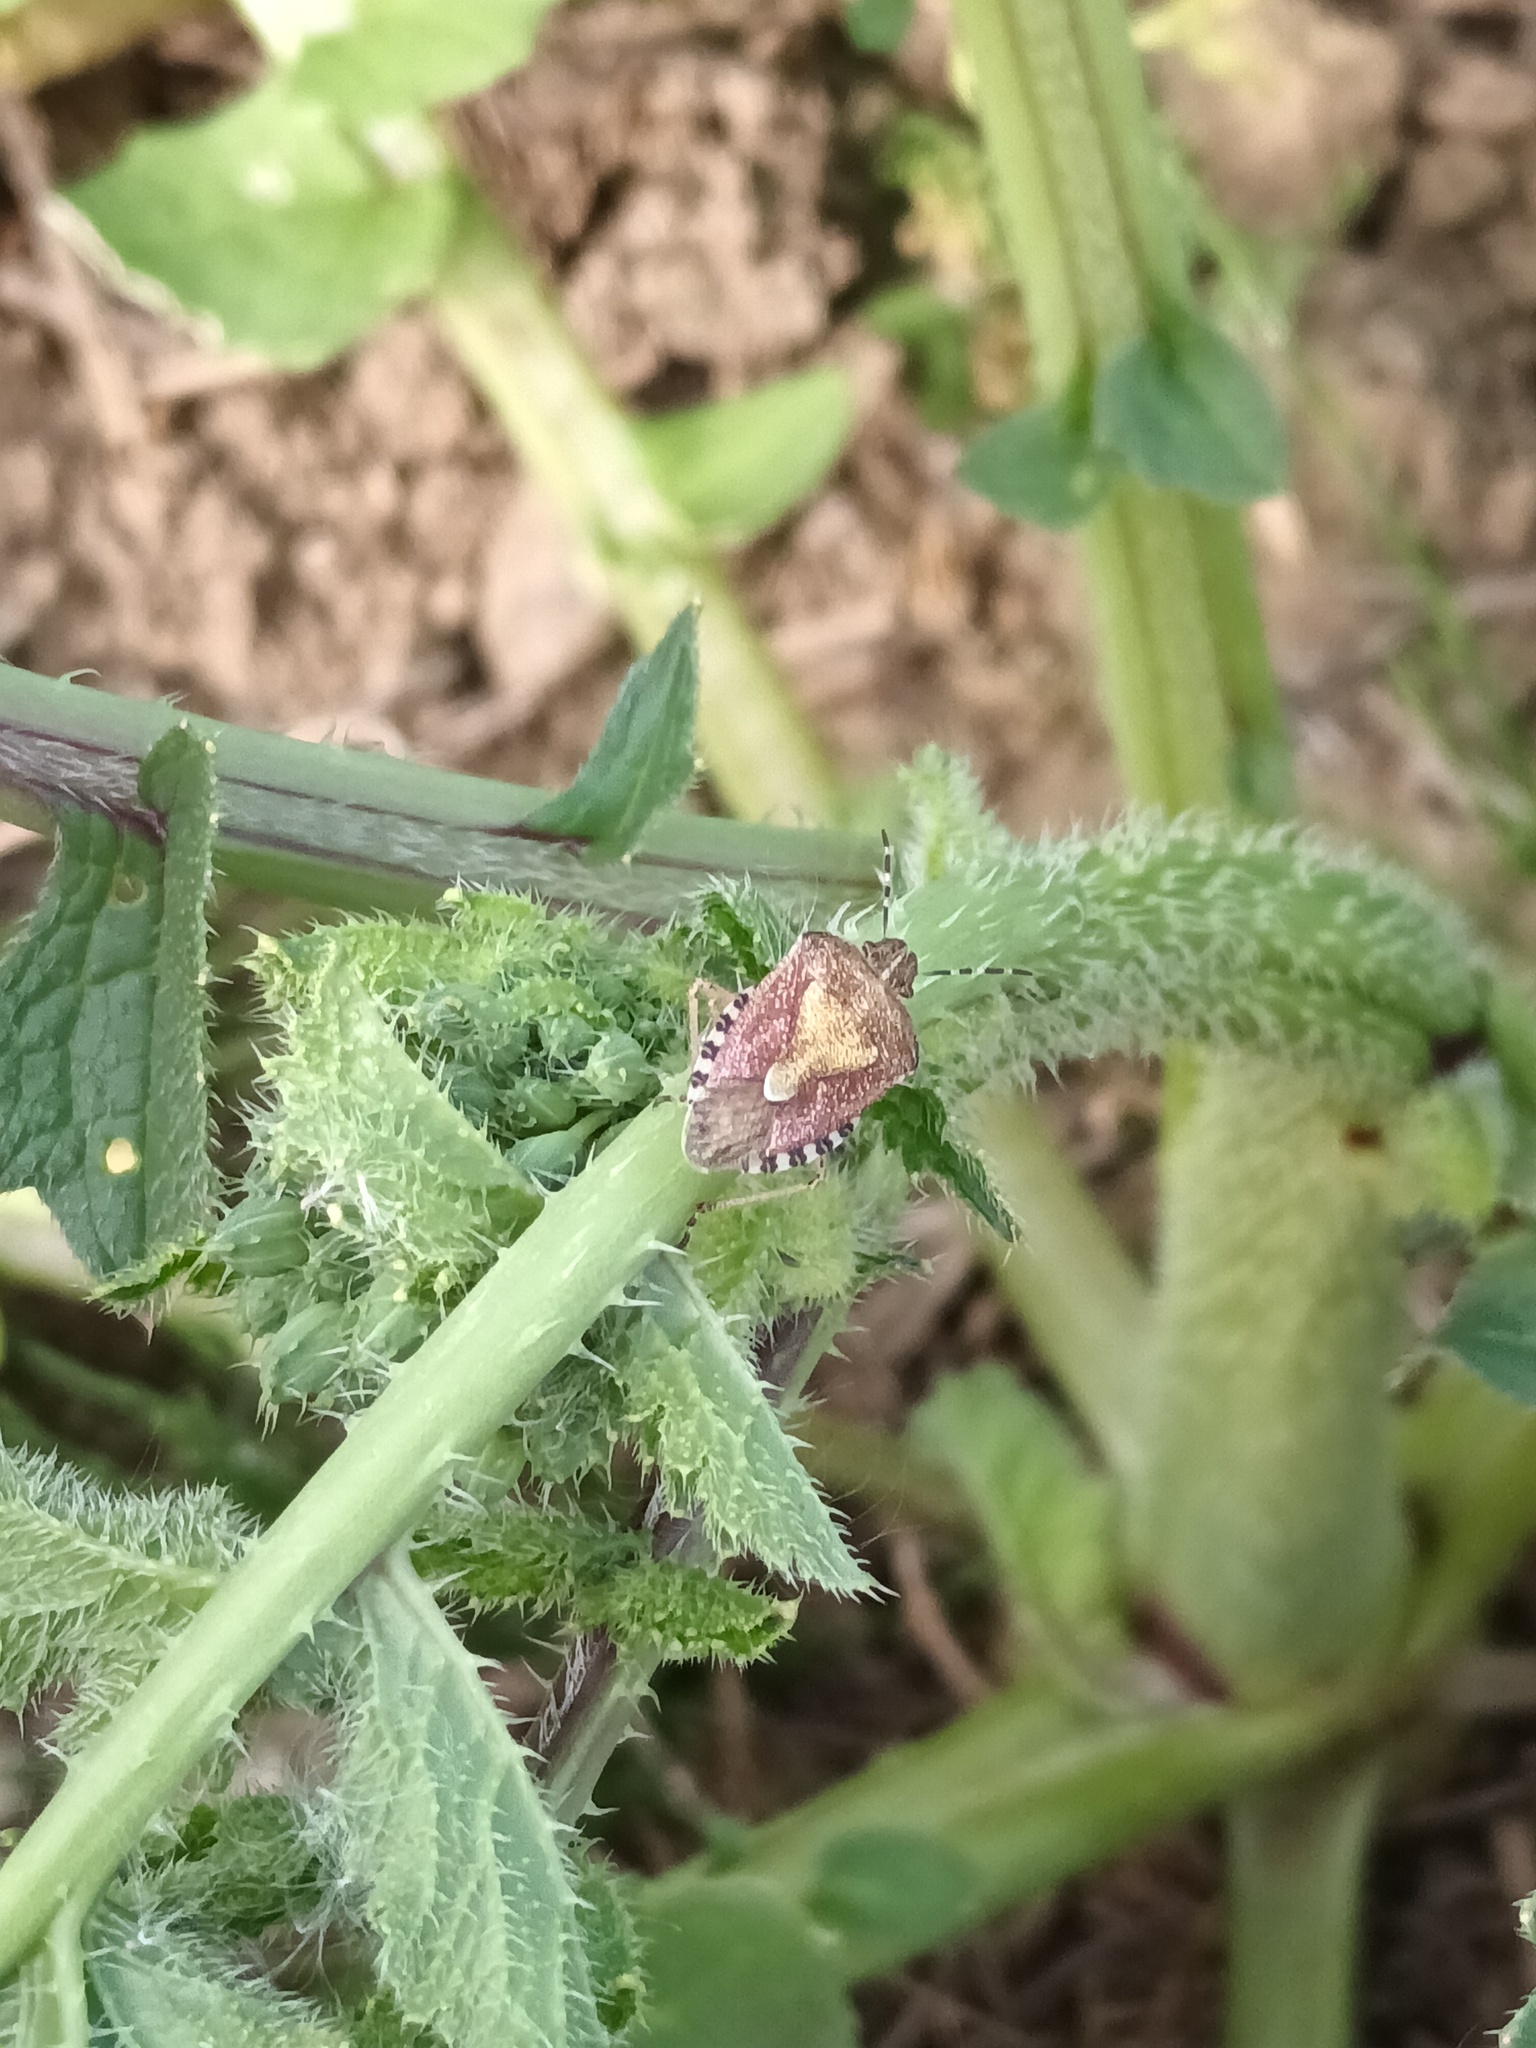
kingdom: Animalia
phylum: Arthropoda
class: Insecta
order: Hemiptera
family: Pentatomidae
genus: Dolycoris
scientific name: Dolycoris baccarum
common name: Sloe bug
